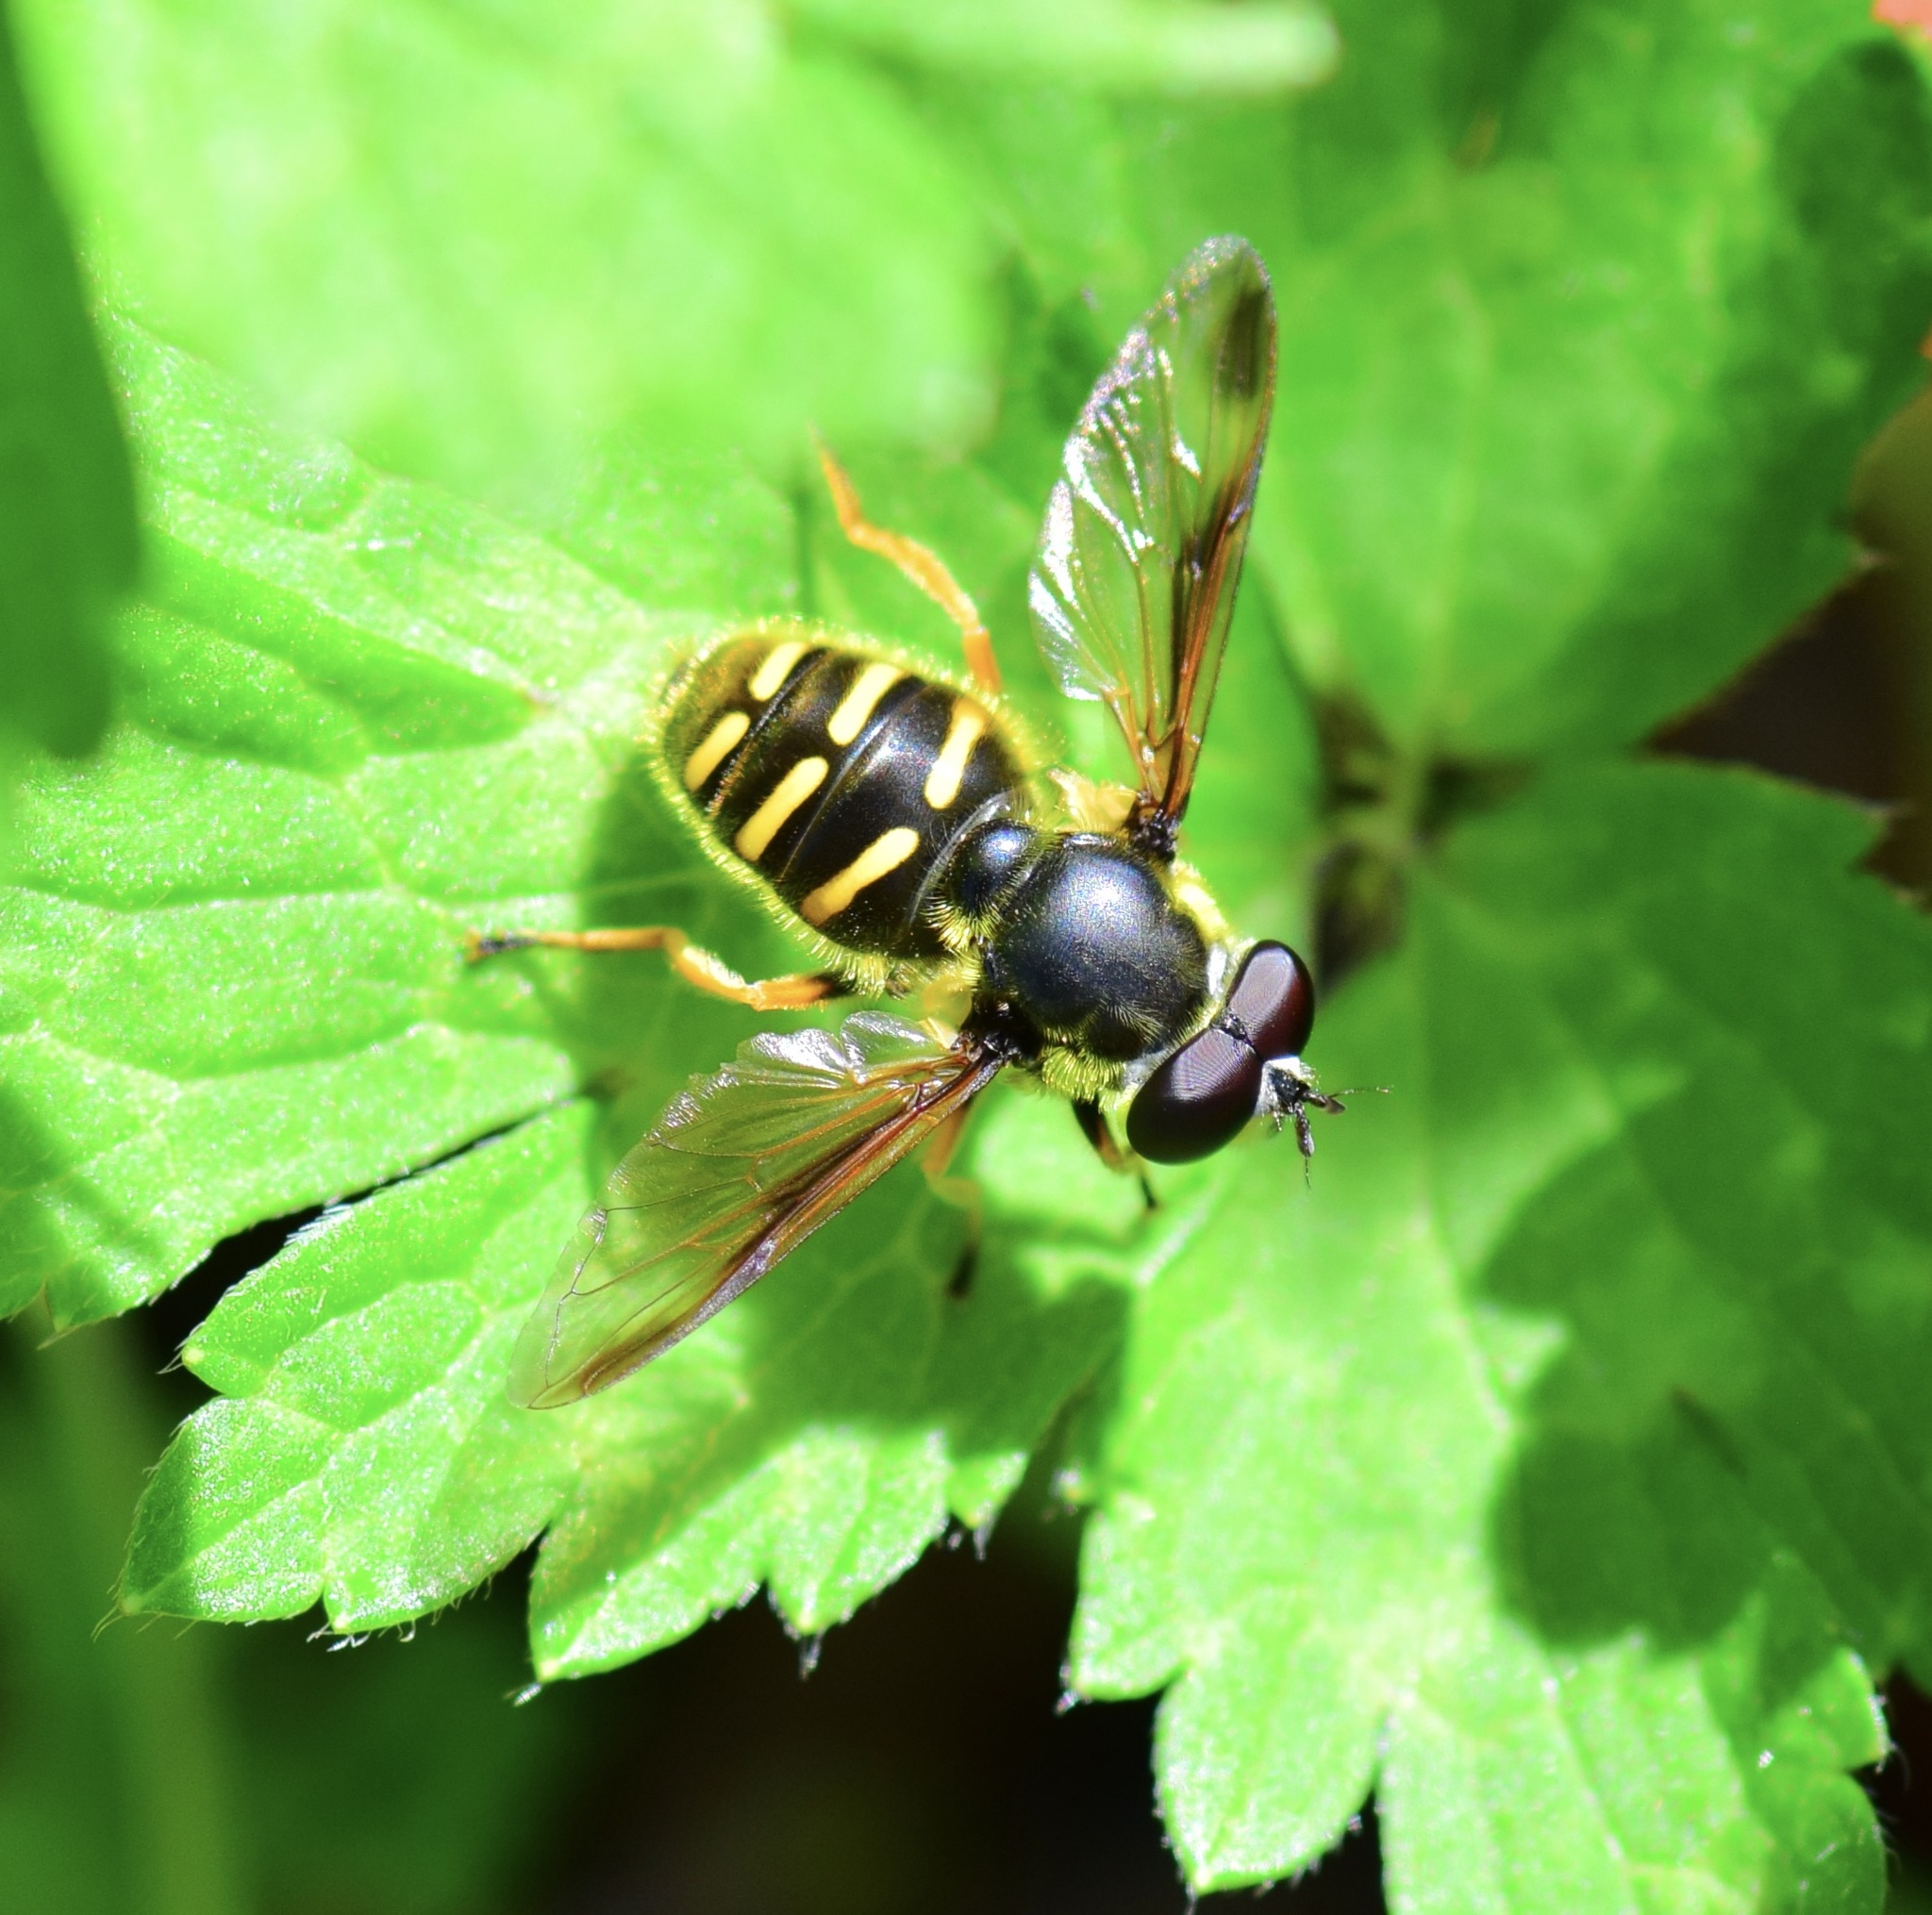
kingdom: Animalia
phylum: Arthropoda
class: Insecta
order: Diptera
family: Syrphidae
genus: Sericomyia
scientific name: Sericomyia chrysotoxoides
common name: Oblique-banded pond fly
